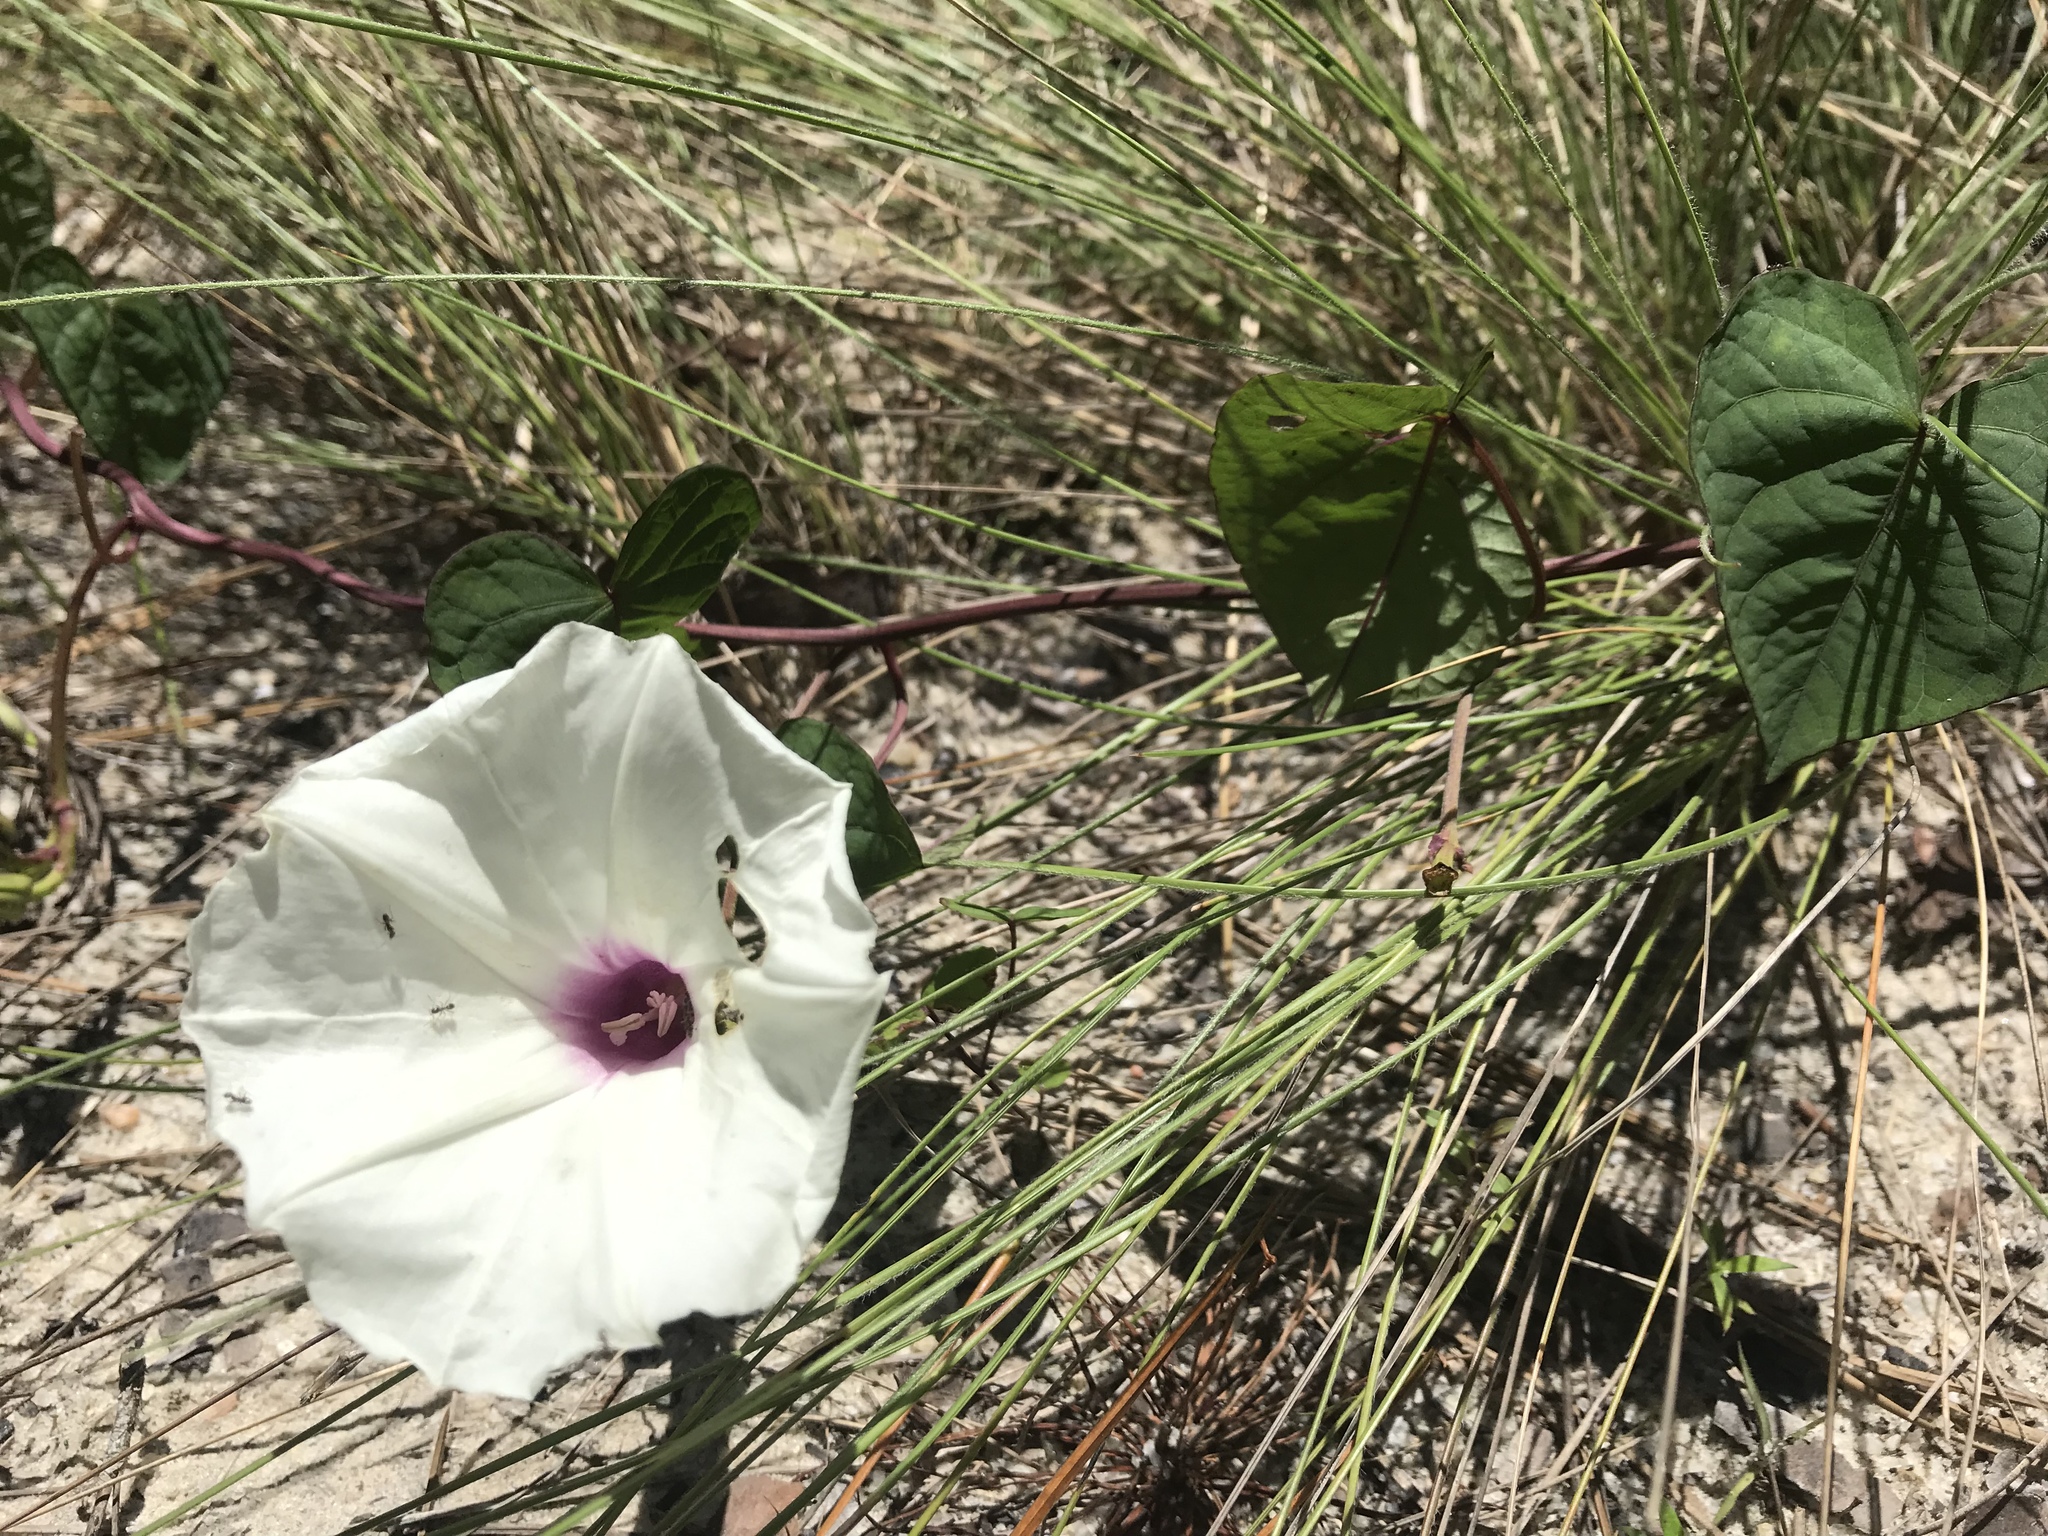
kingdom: Plantae
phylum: Tracheophyta
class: Magnoliopsida
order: Solanales
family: Convolvulaceae
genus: Ipomoea
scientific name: Ipomoea pandurata
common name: Man-of-the-earth
